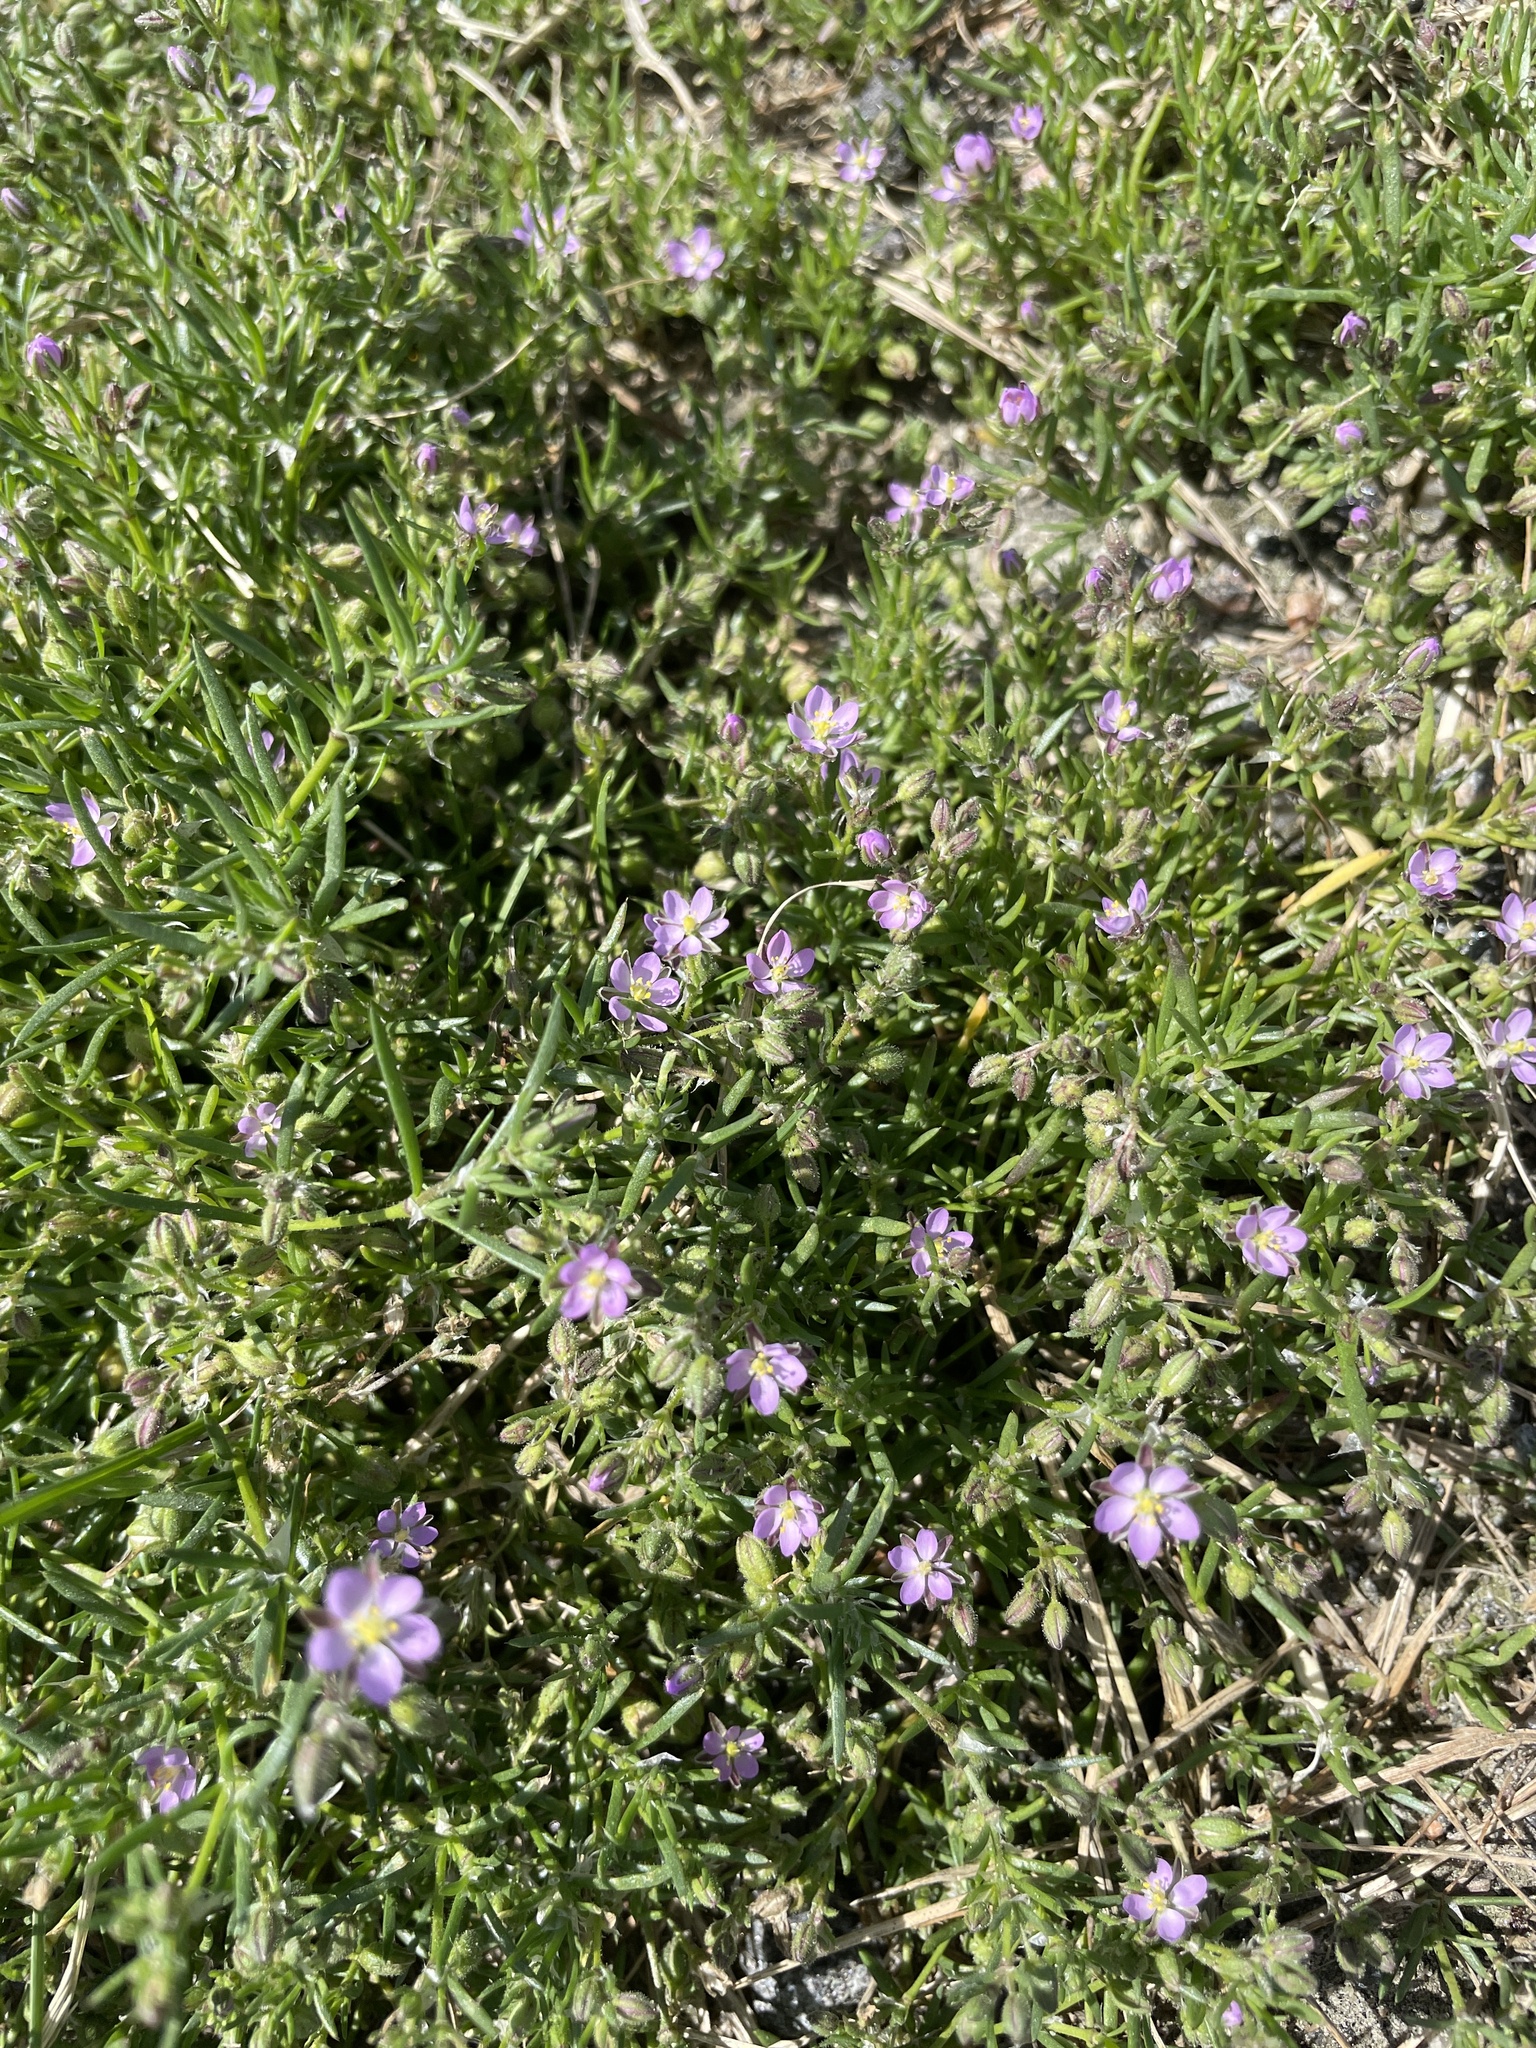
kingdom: Plantae
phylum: Tracheophyta
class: Magnoliopsida
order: Caryophyllales
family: Caryophyllaceae
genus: Spergularia
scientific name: Spergularia rubra
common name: Red sand-spurrey
